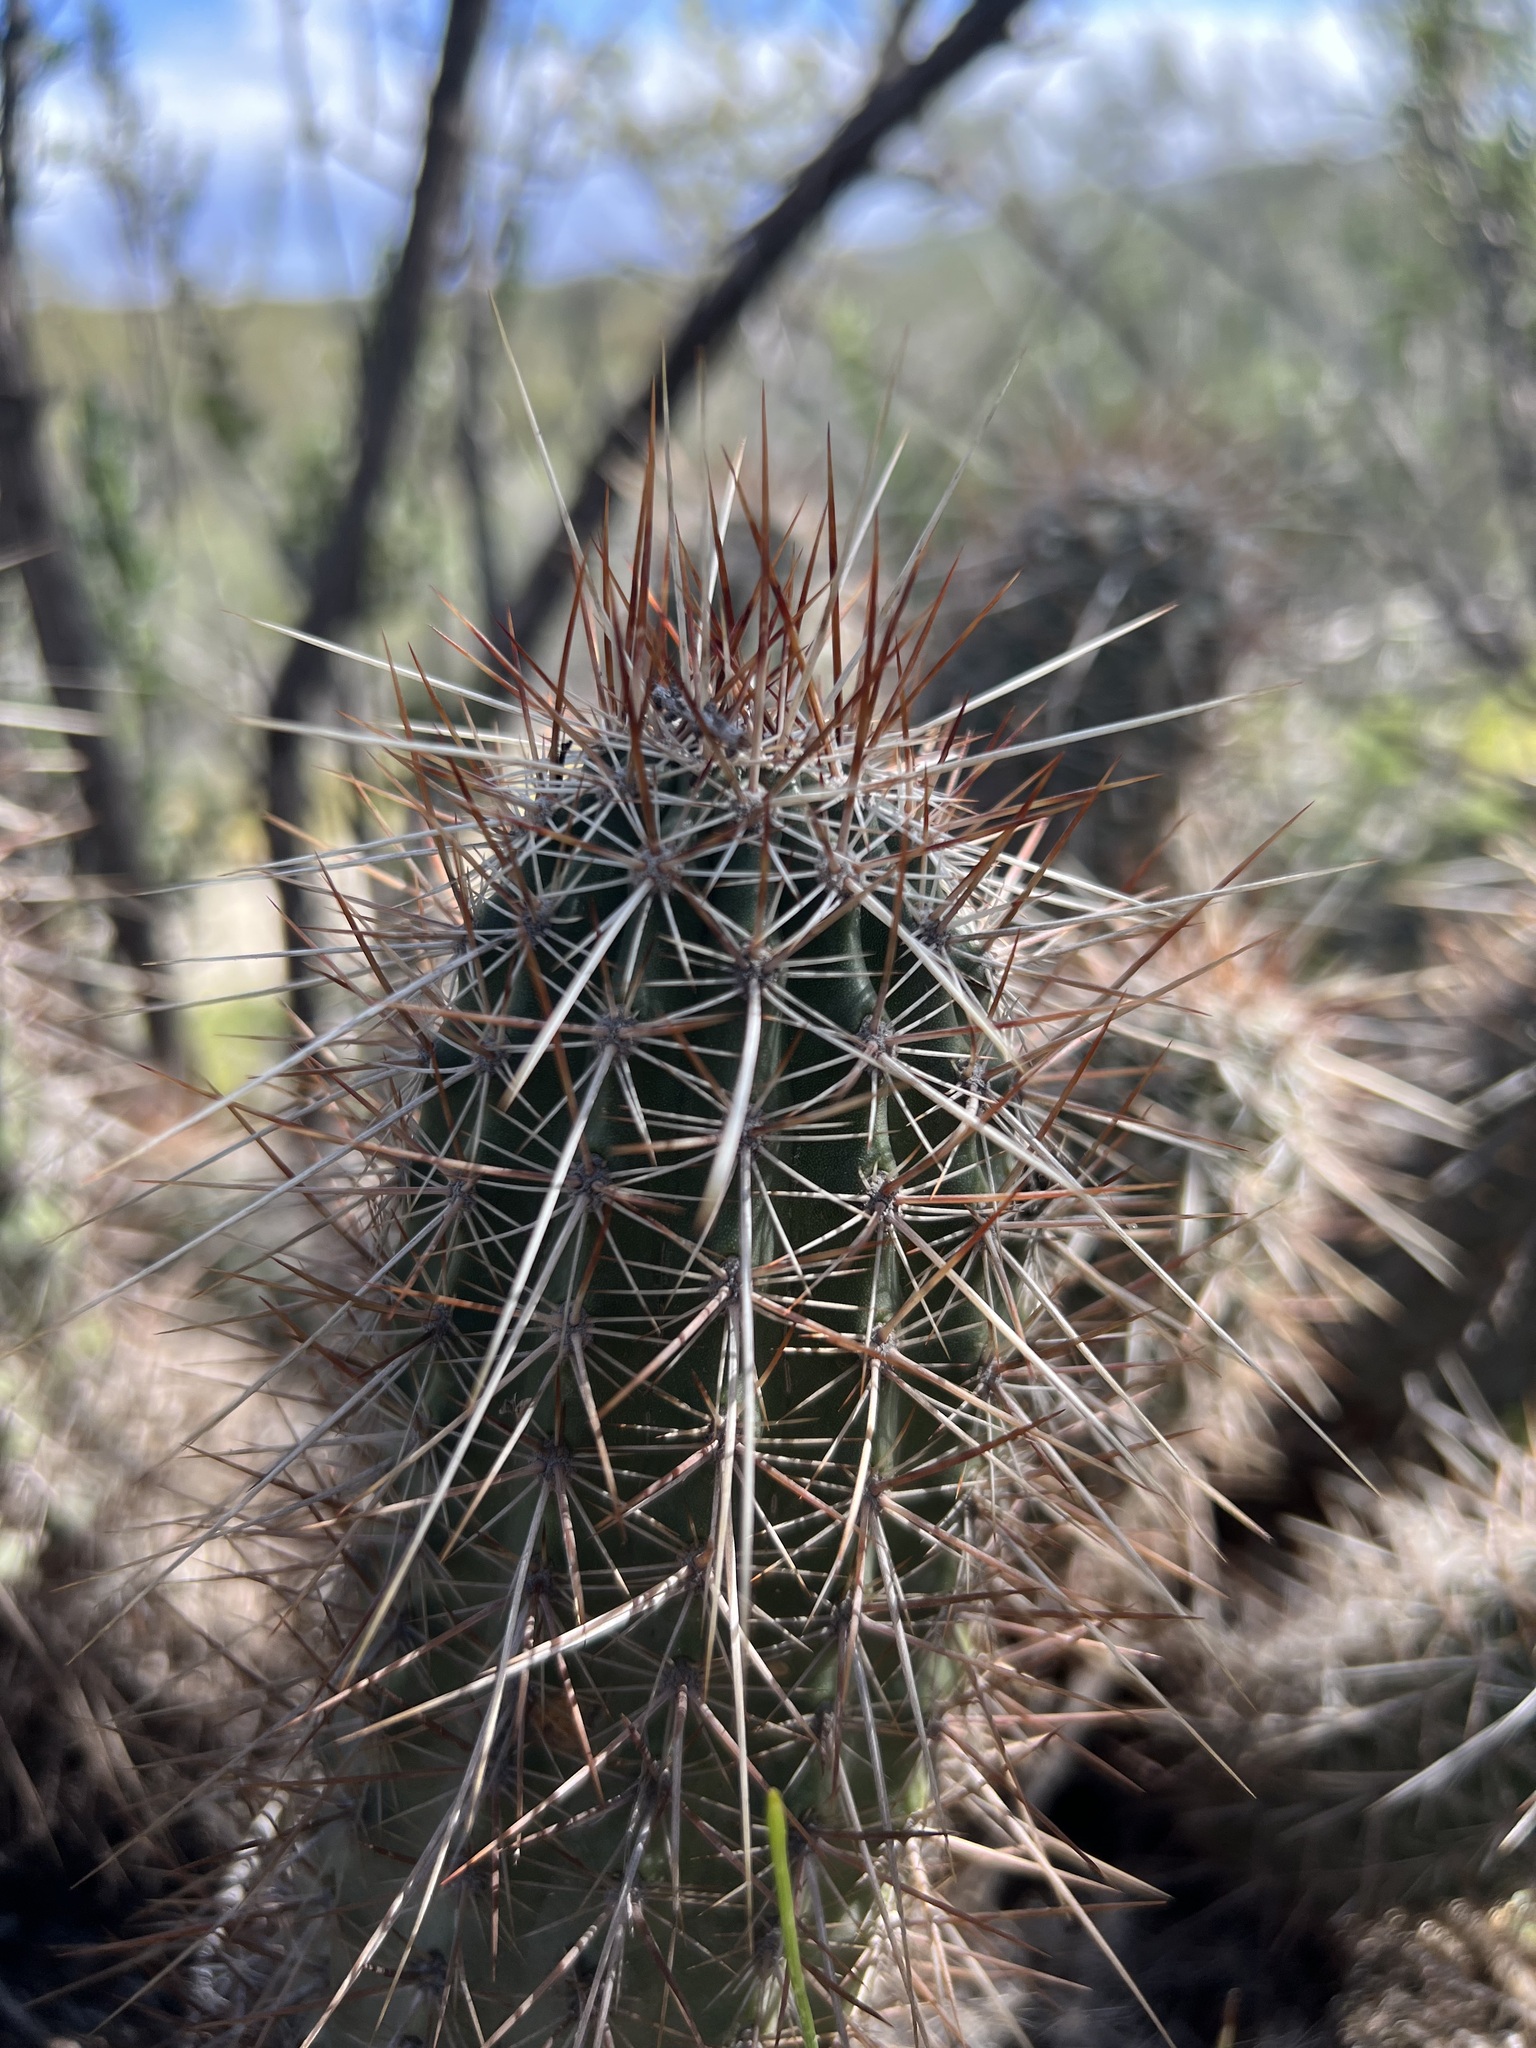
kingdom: Plantae
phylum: Tracheophyta
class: Magnoliopsida
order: Caryophyllales
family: Cactaceae
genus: Echinocereus
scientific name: Echinocereus engelmannii
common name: Engelmann's hedgehog cactus
